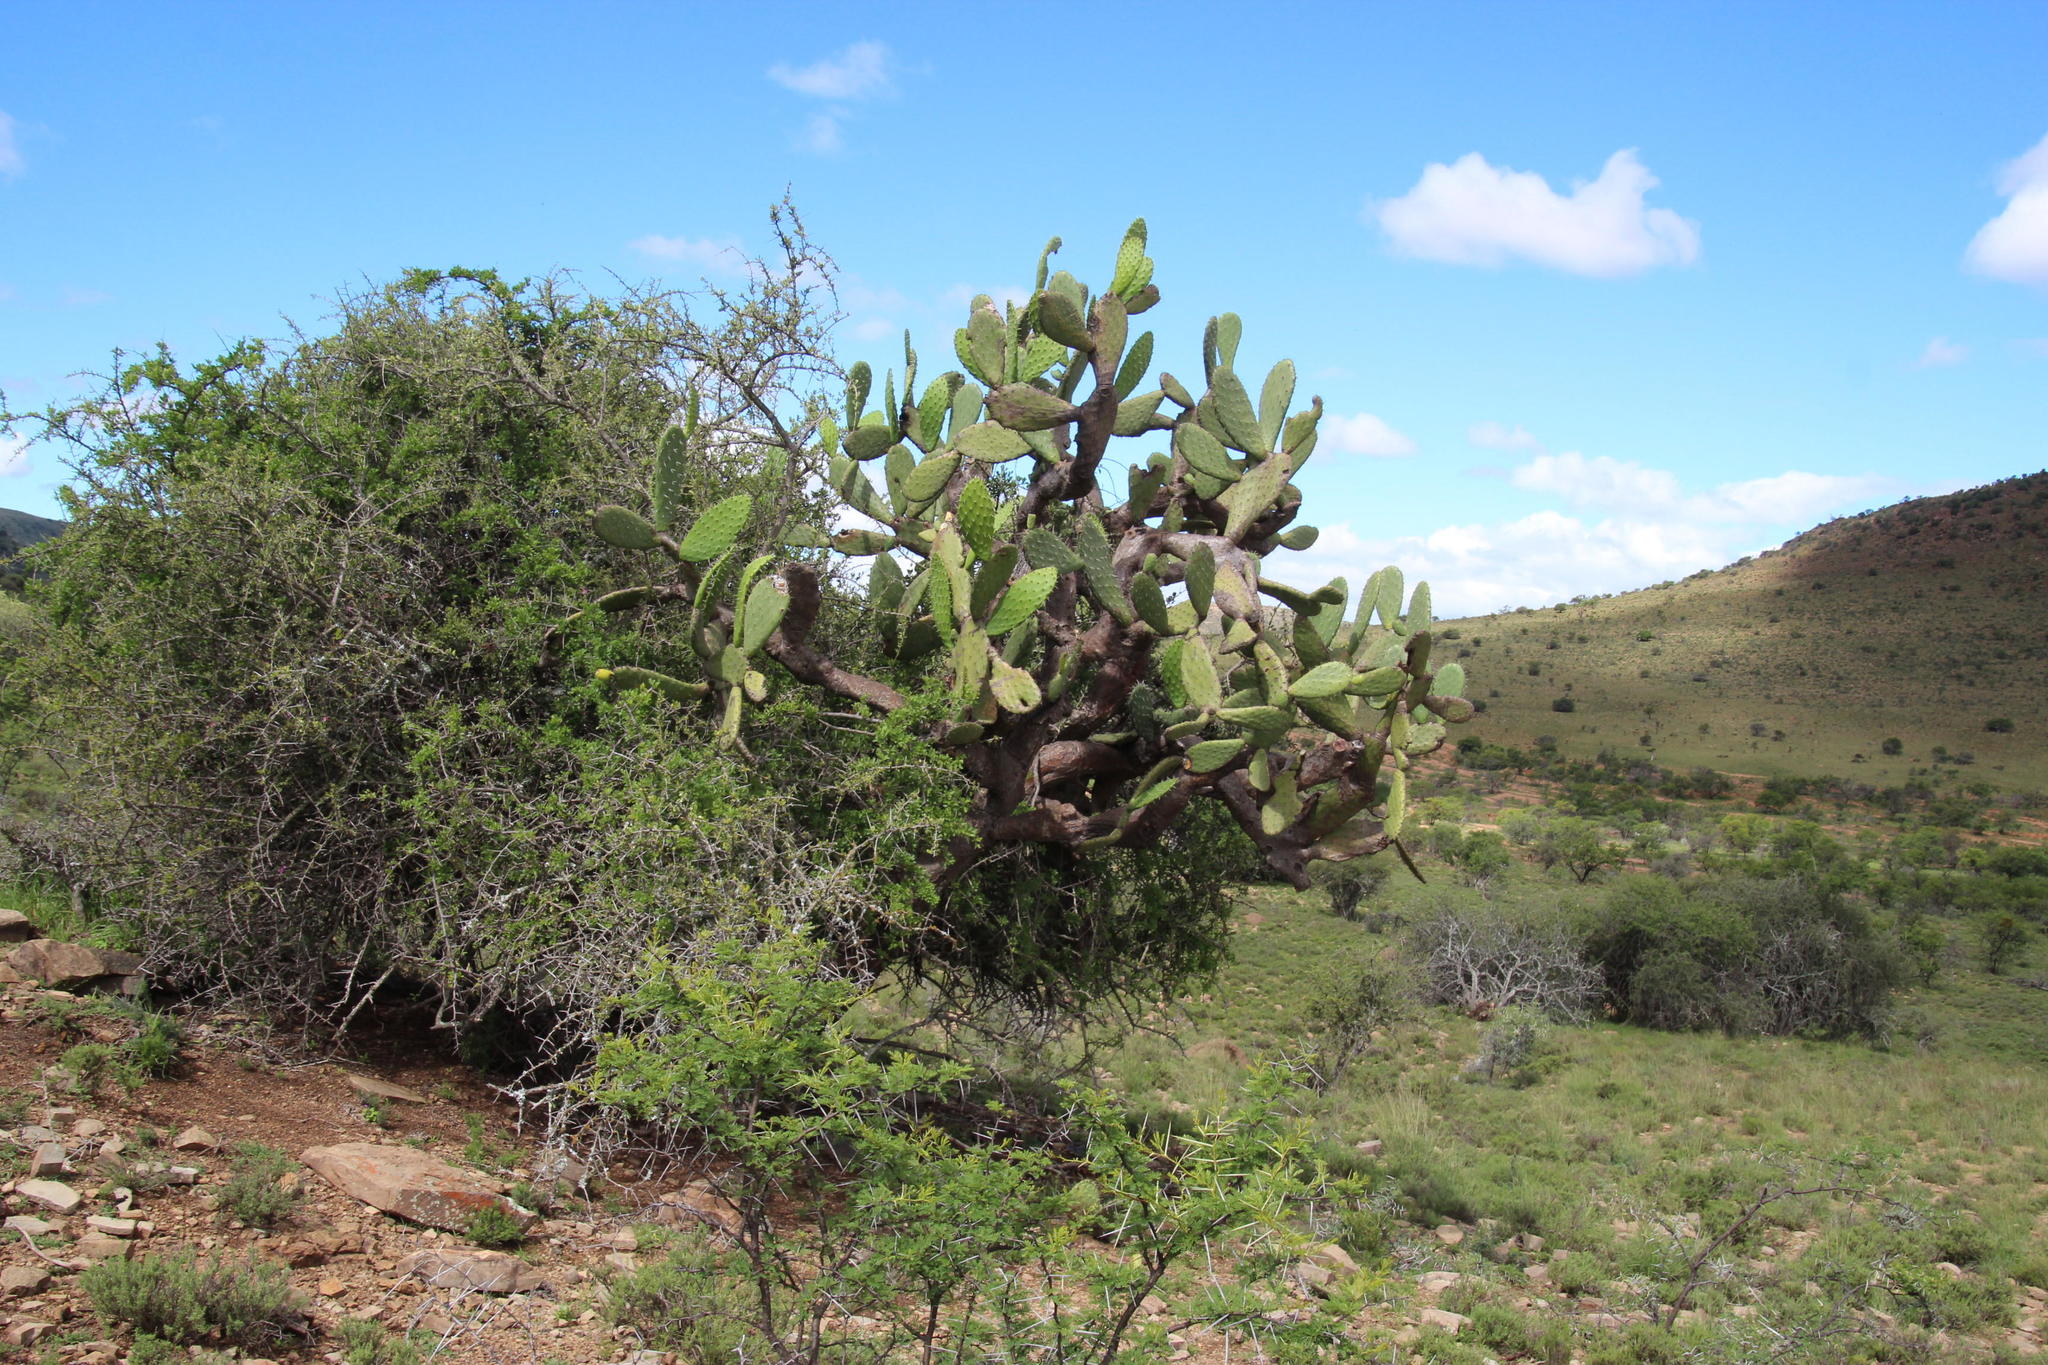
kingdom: Plantae
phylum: Tracheophyta
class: Magnoliopsida
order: Caryophyllales
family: Cactaceae
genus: Opuntia
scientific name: Opuntia ficus-indica
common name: Barbary fig
